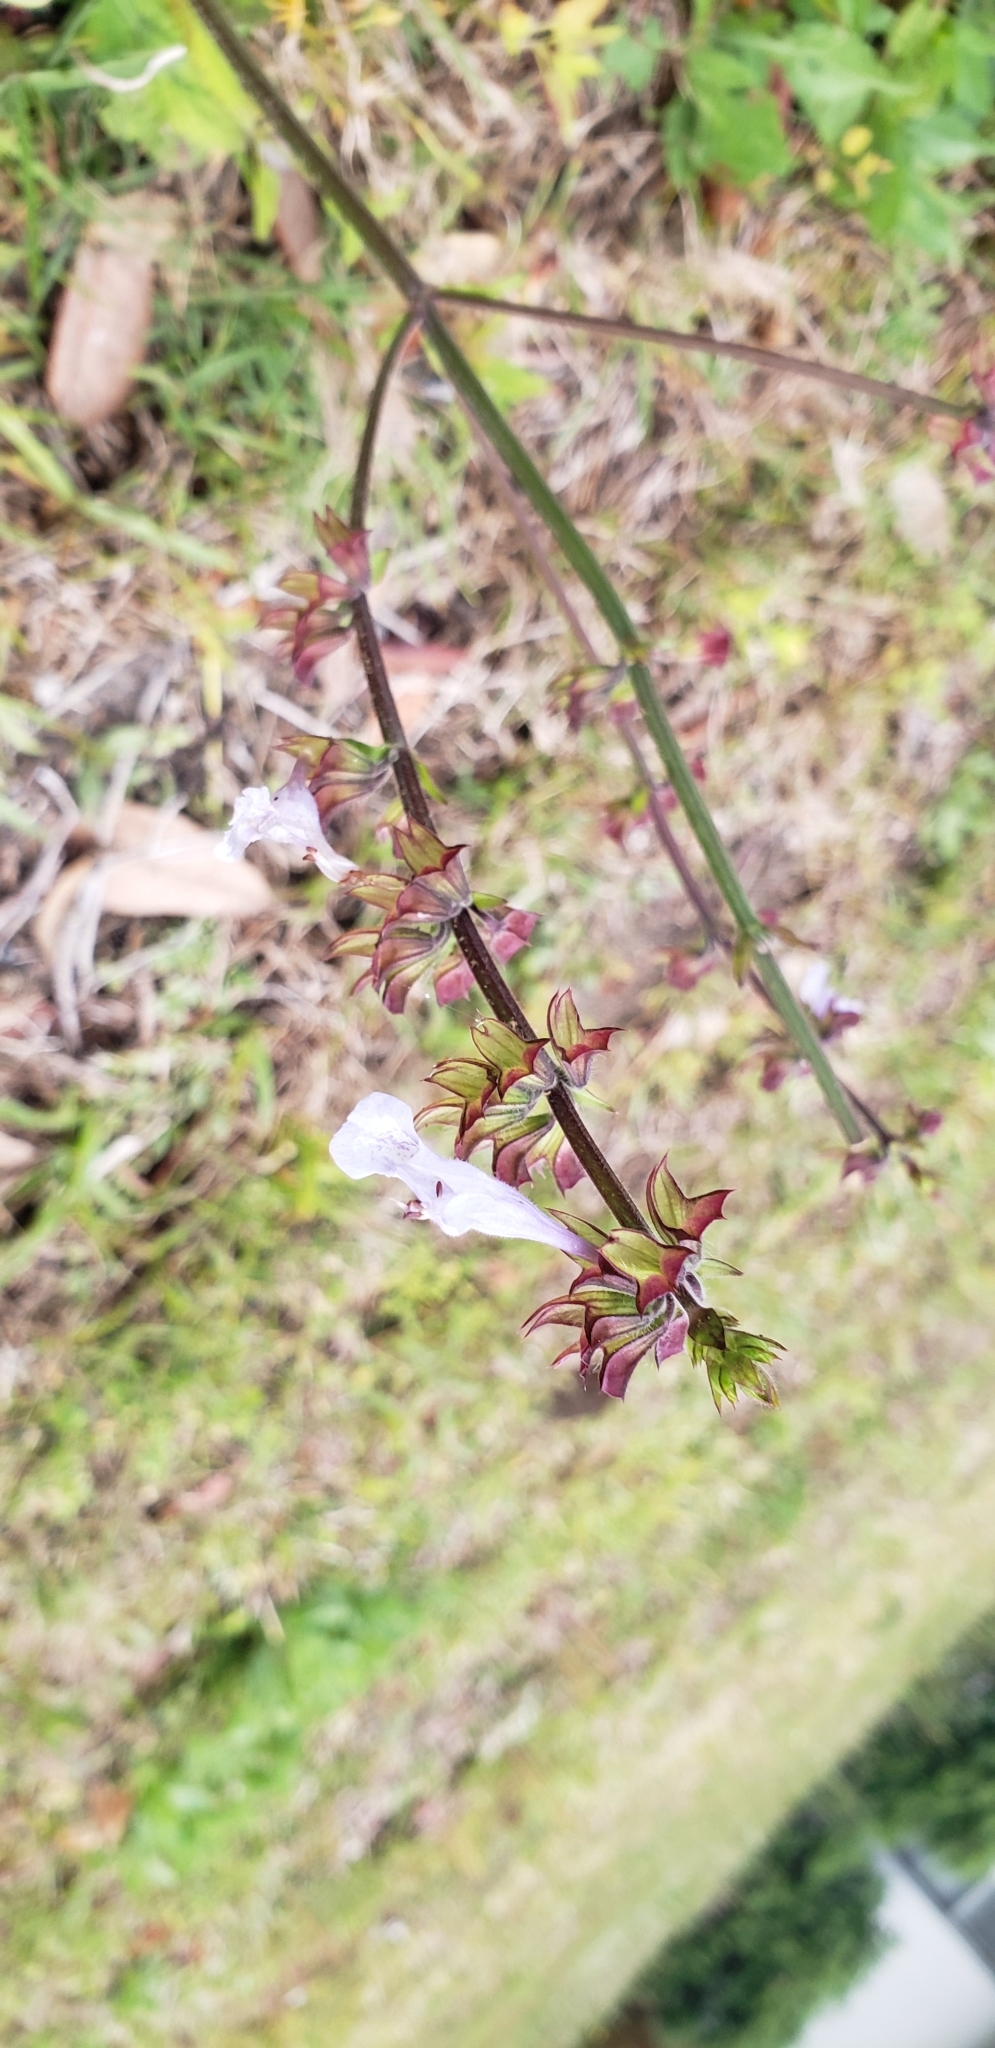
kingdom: Plantae
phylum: Tracheophyta
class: Magnoliopsida
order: Lamiales
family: Lamiaceae
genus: Salvia
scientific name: Salvia lyrata
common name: Cancerweed
